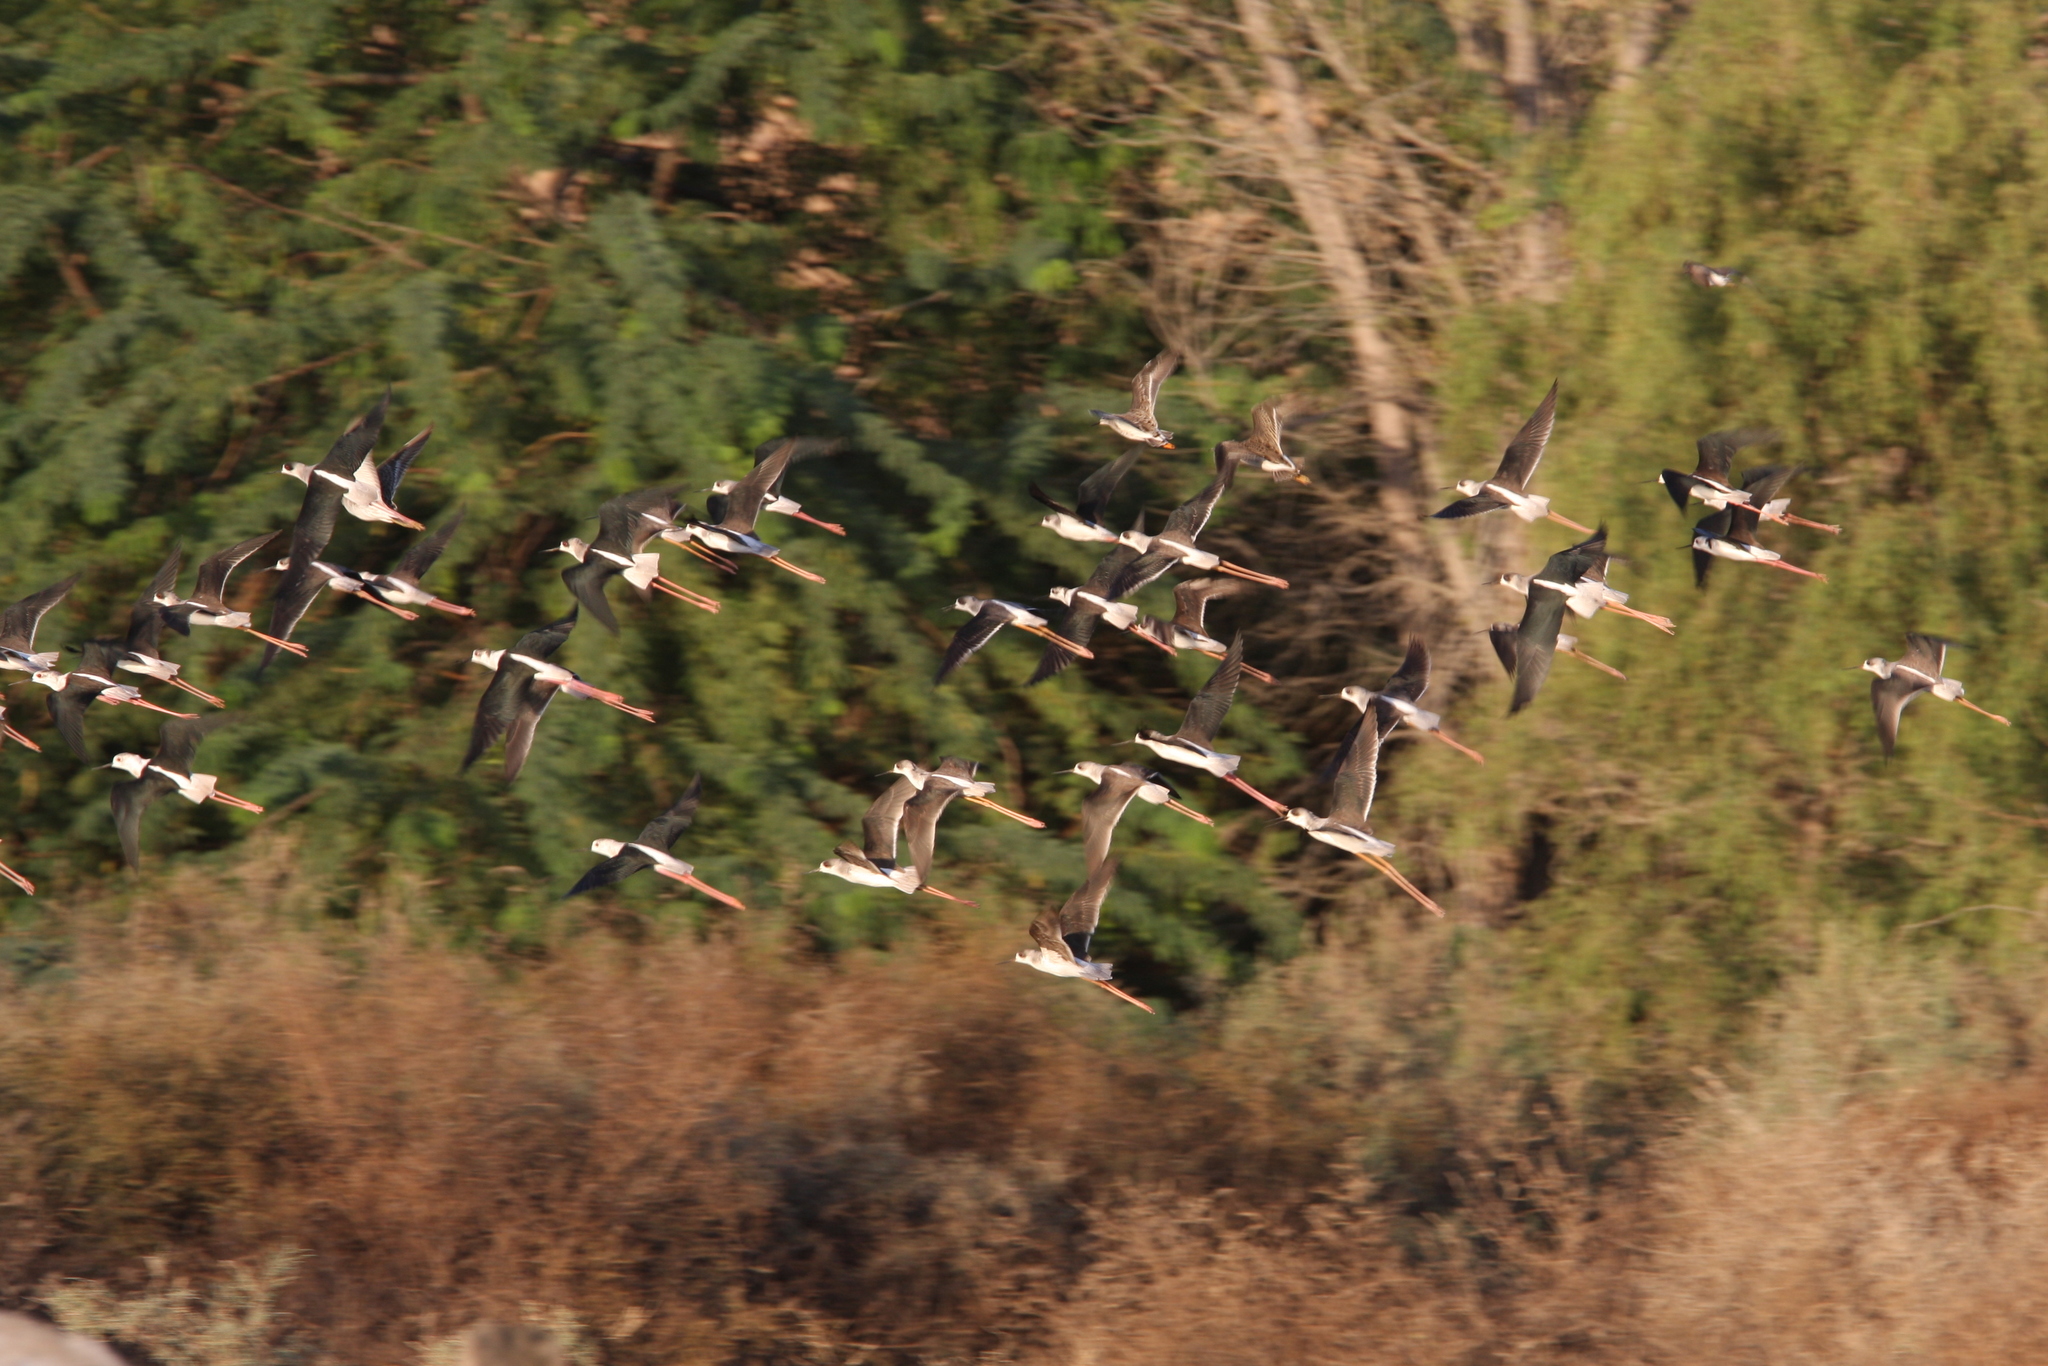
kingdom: Animalia
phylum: Chordata
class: Aves
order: Charadriiformes
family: Recurvirostridae
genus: Himantopus
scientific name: Himantopus himantopus
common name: Black-winged stilt
